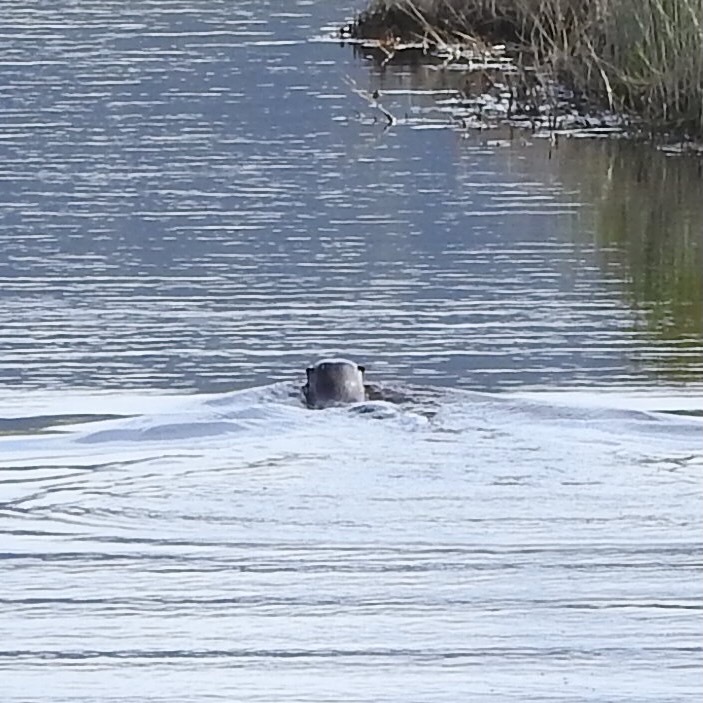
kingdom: Animalia
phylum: Chordata
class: Mammalia
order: Carnivora
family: Mustelidae
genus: Lontra
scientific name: Lontra canadensis
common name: North american river otter
